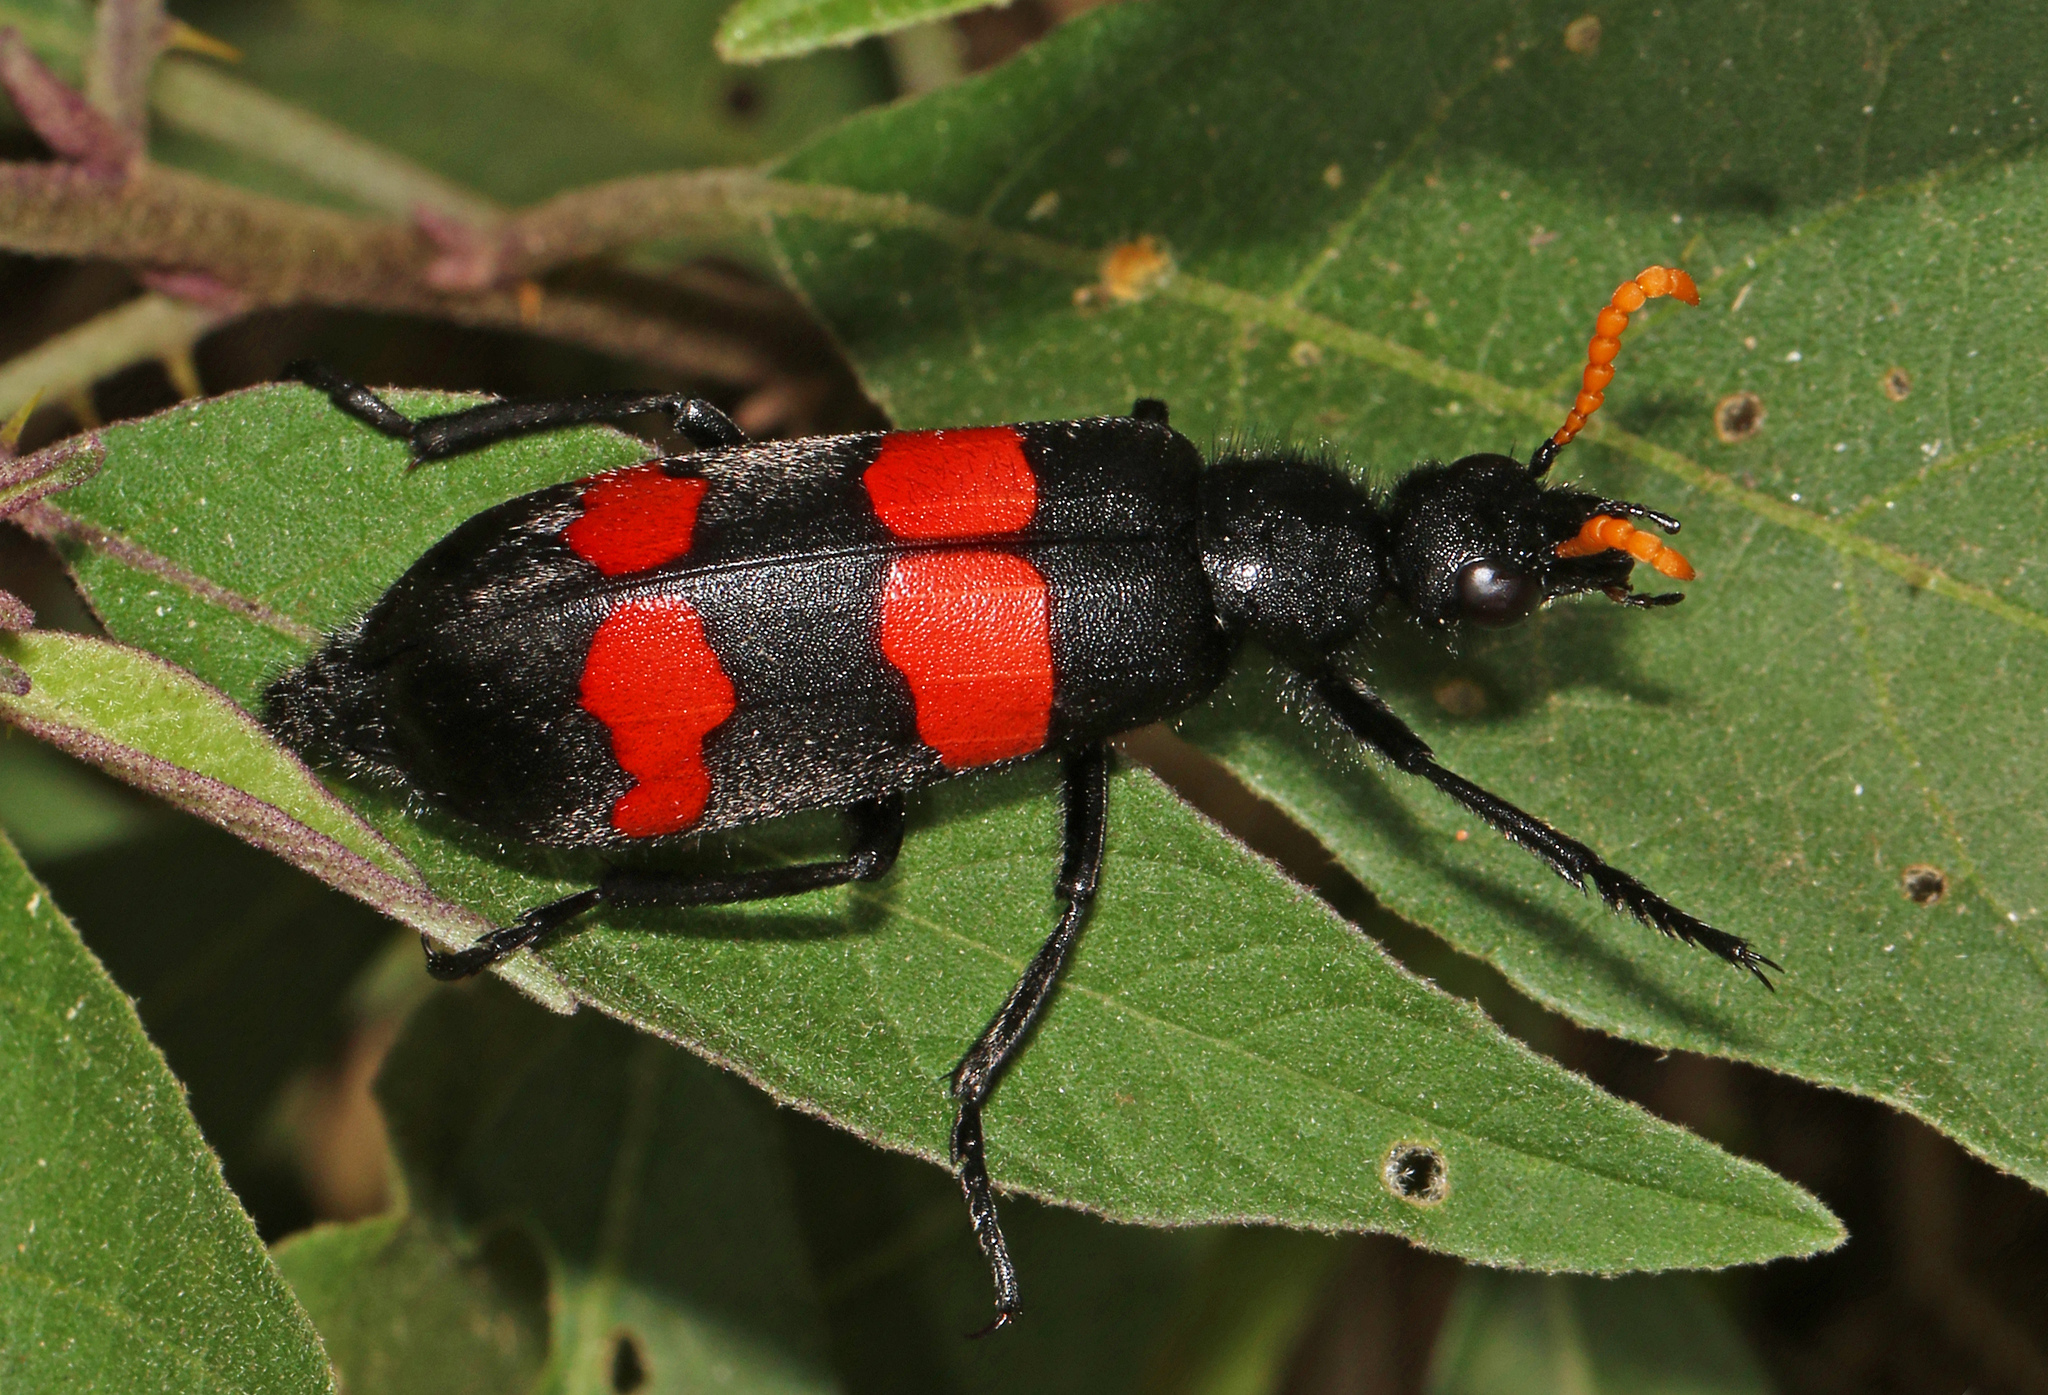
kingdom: Animalia
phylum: Arthropoda
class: Insecta
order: Coleoptera
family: Meloidae
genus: Hycleus
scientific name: Hycleus dicinctus
